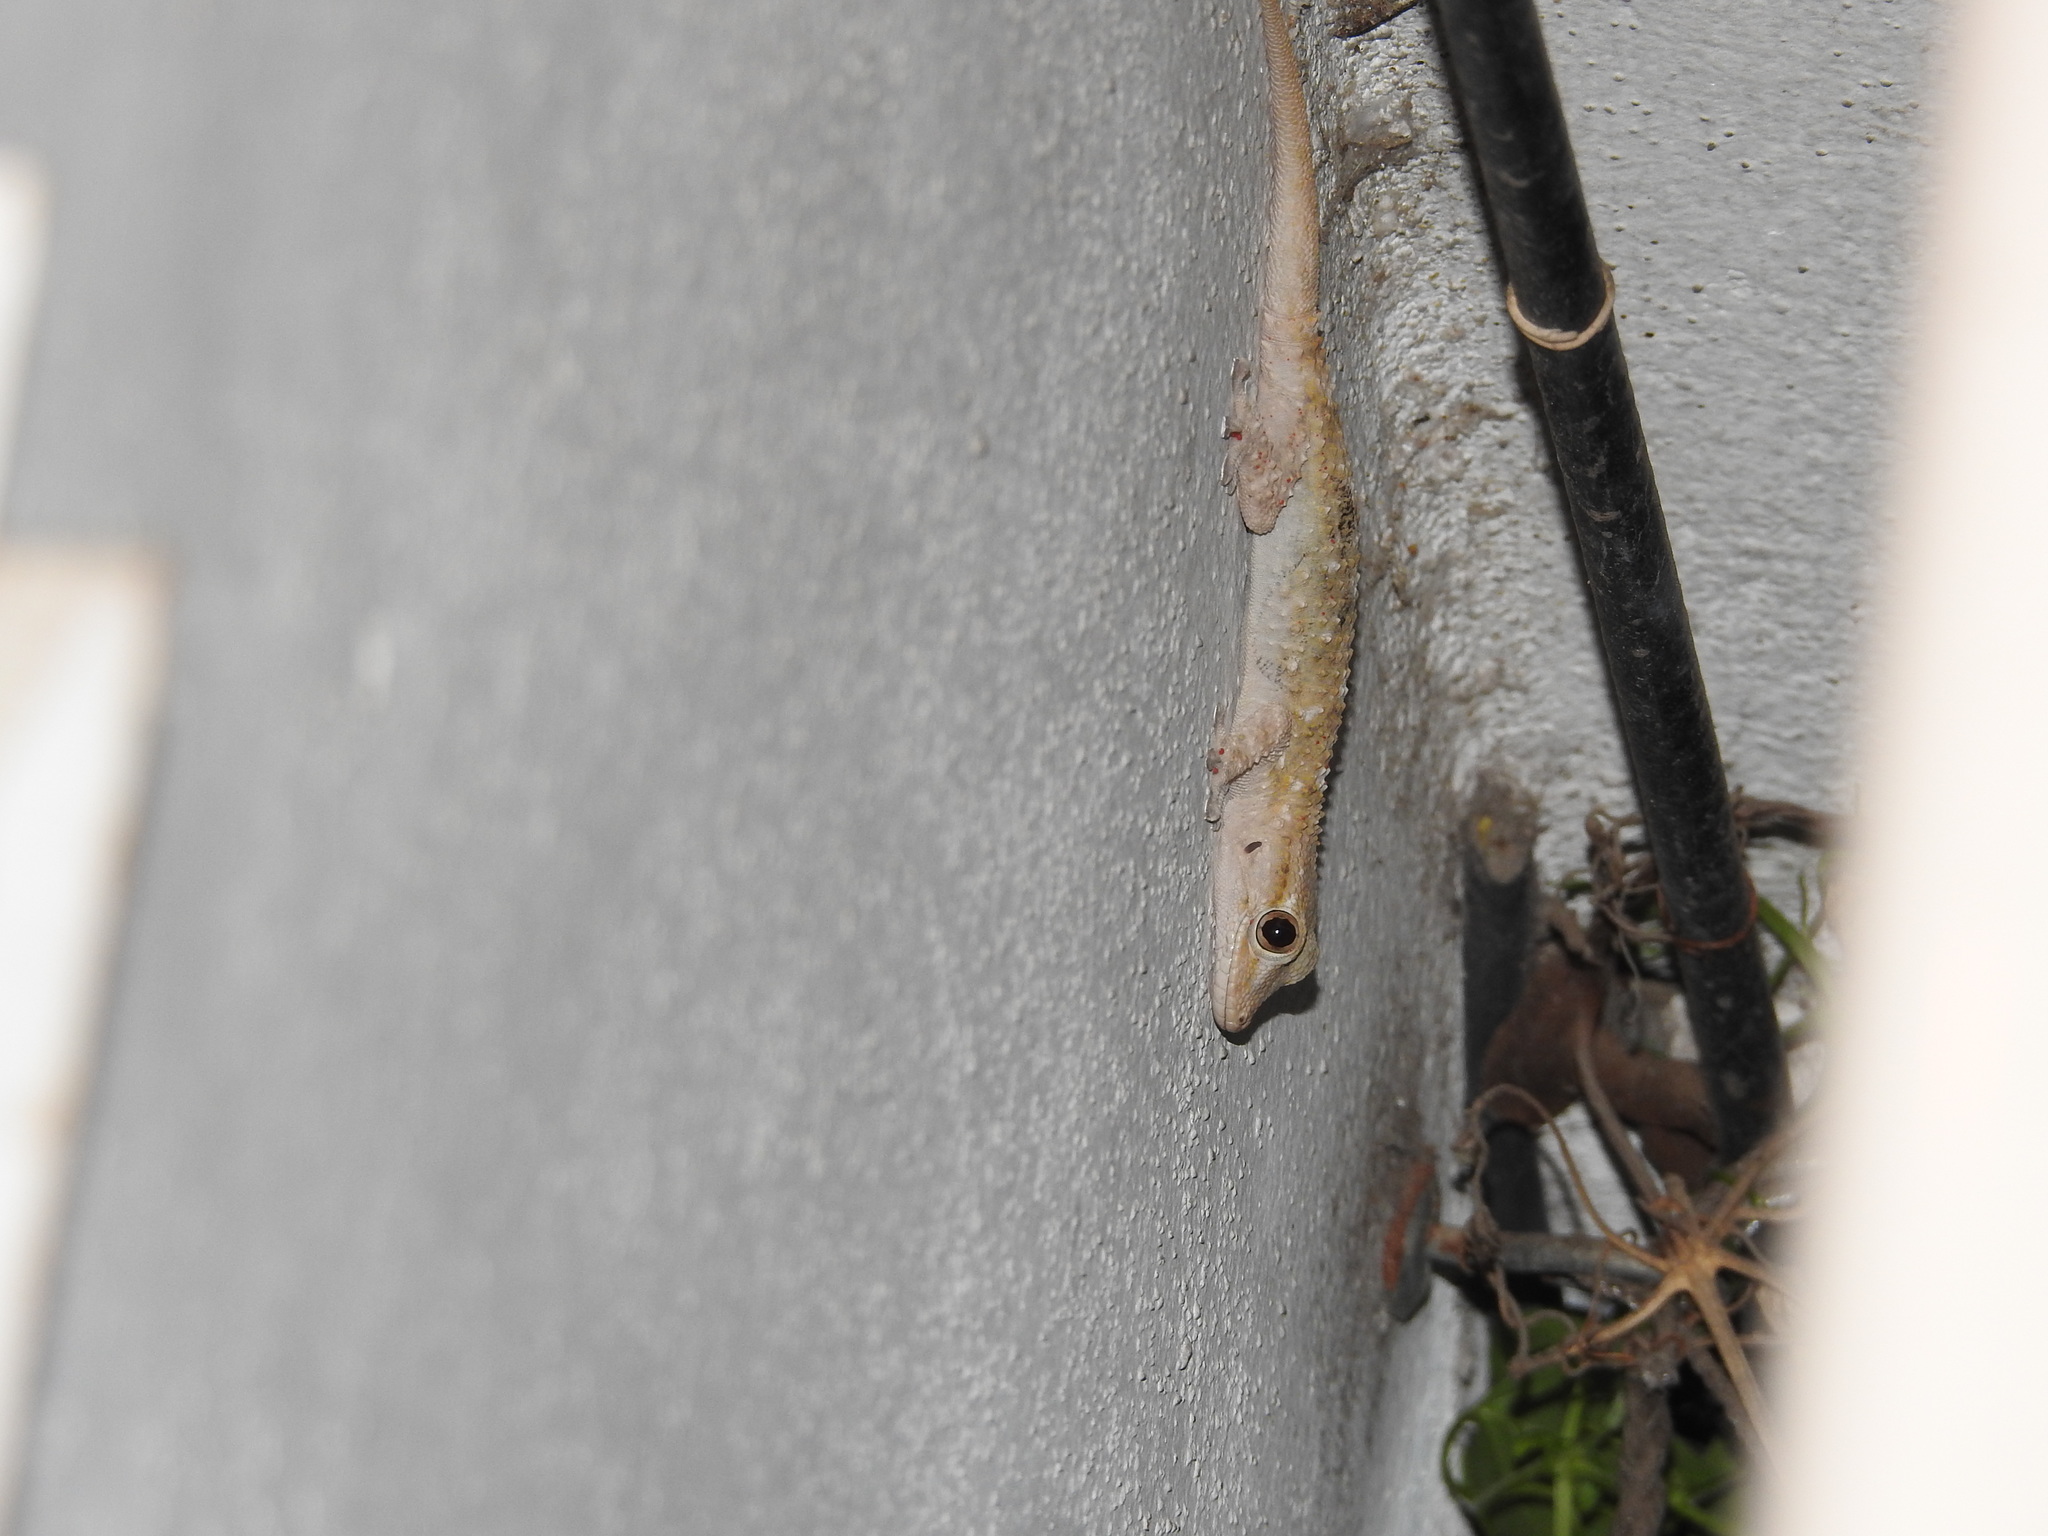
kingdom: Animalia
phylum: Chordata
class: Squamata
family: Phyllodactylidae
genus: Tarentola
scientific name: Tarentola mauritanica
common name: Moorish gecko
